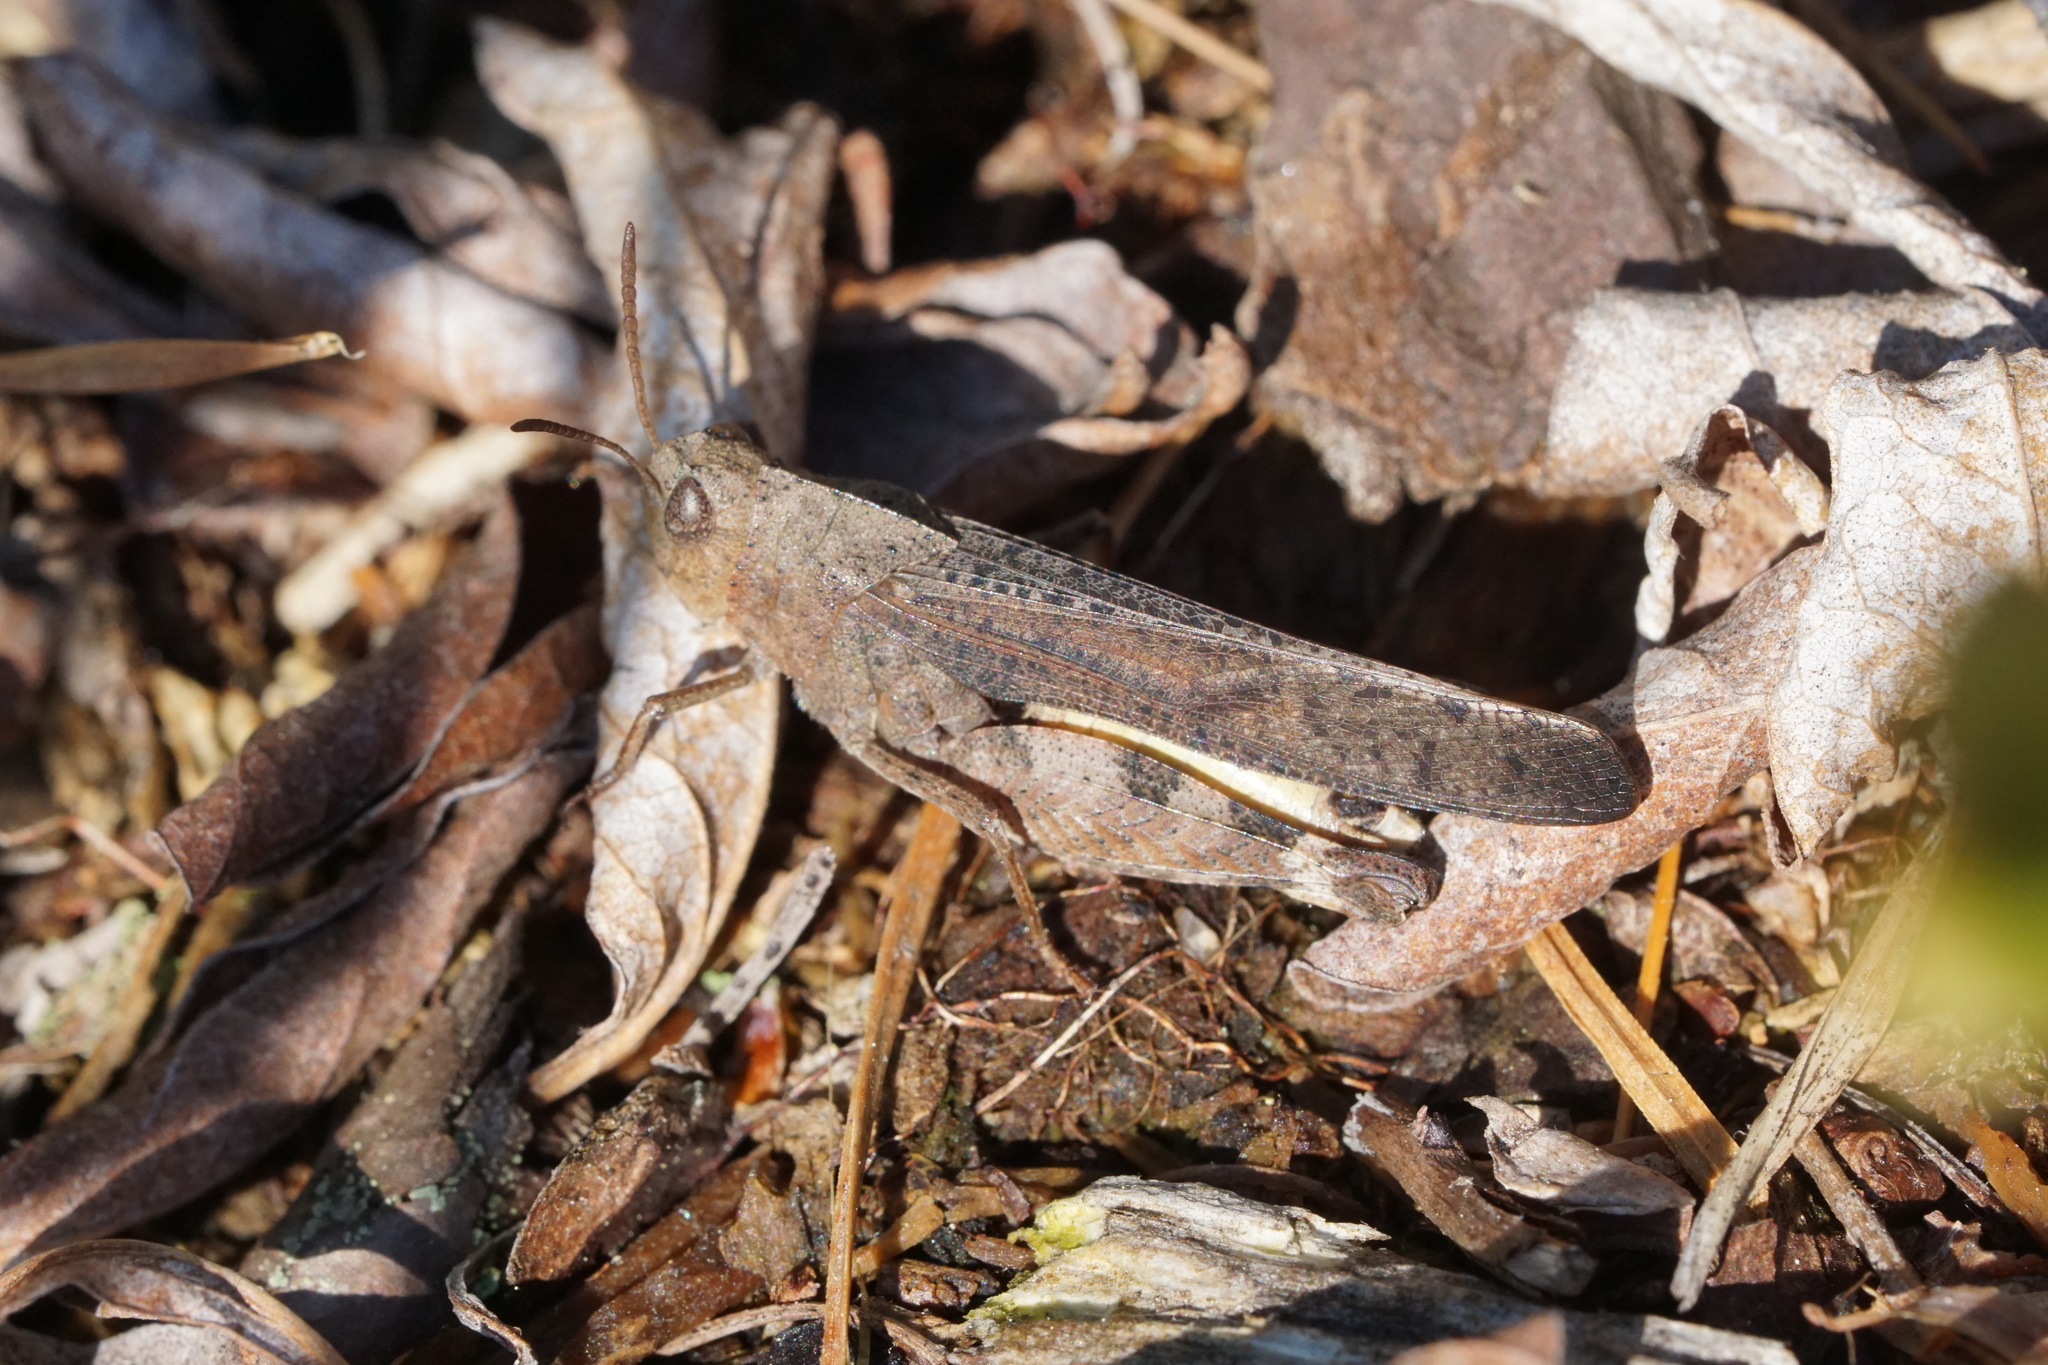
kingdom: Animalia
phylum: Arthropoda
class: Insecta
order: Orthoptera
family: Acrididae
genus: Arphia
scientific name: Arphia sulphurea
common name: Spring yellow-winged locust
